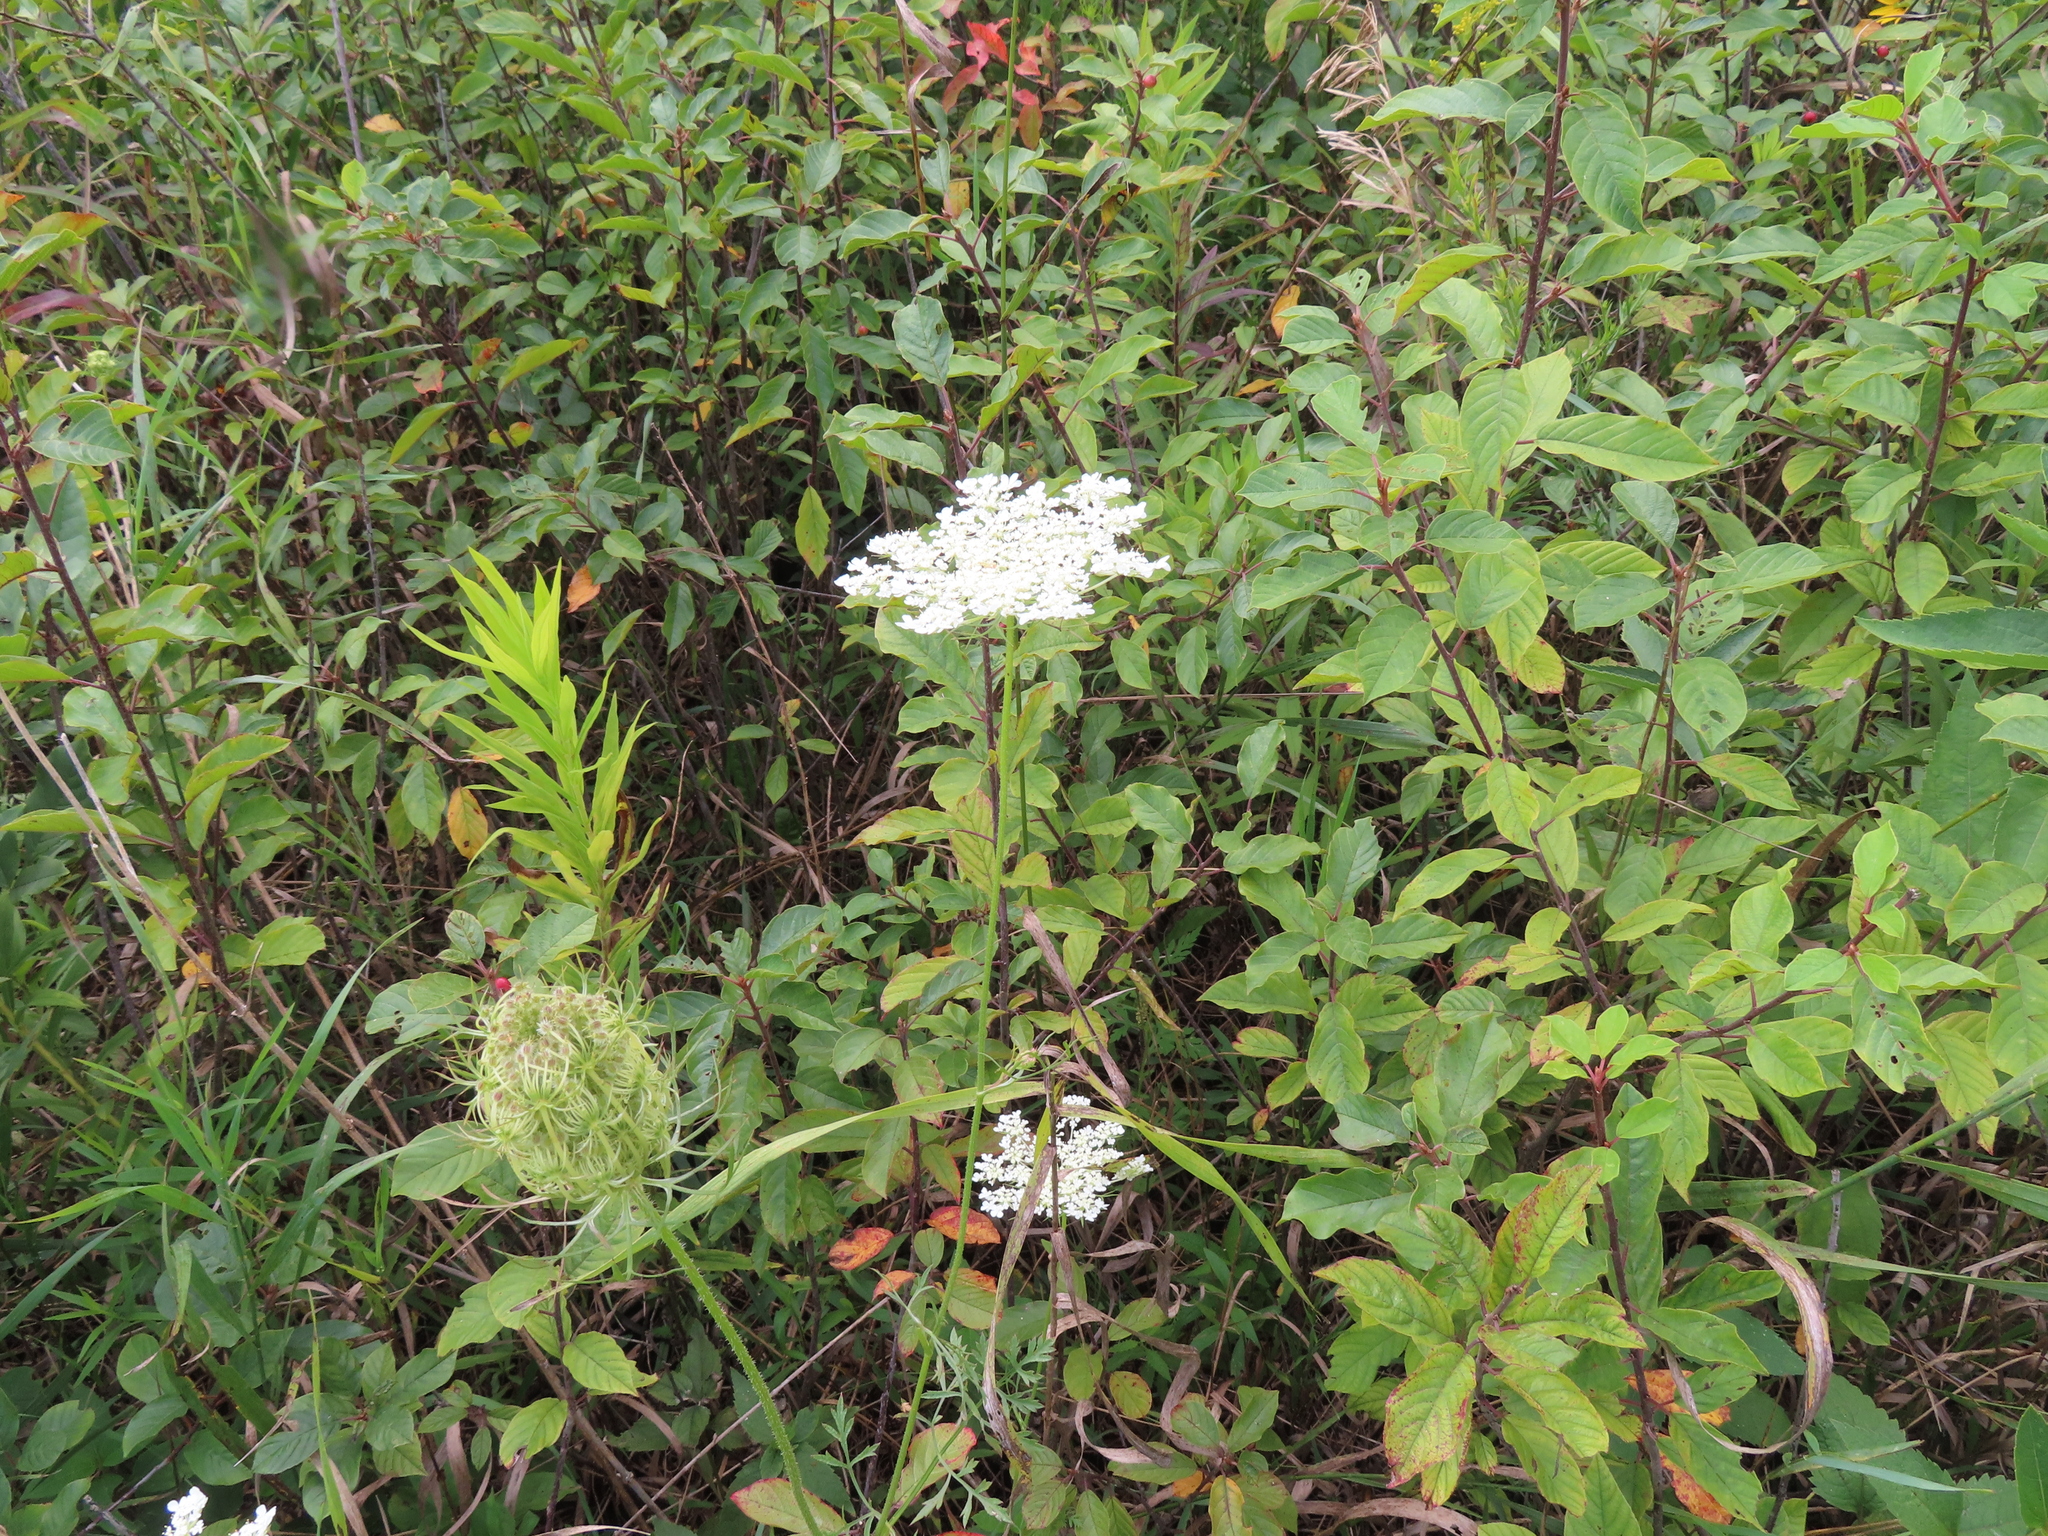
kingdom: Plantae
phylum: Tracheophyta
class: Magnoliopsida
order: Apiales
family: Apiaceae
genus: Daucus
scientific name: Daucus carota
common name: Wild carrot
